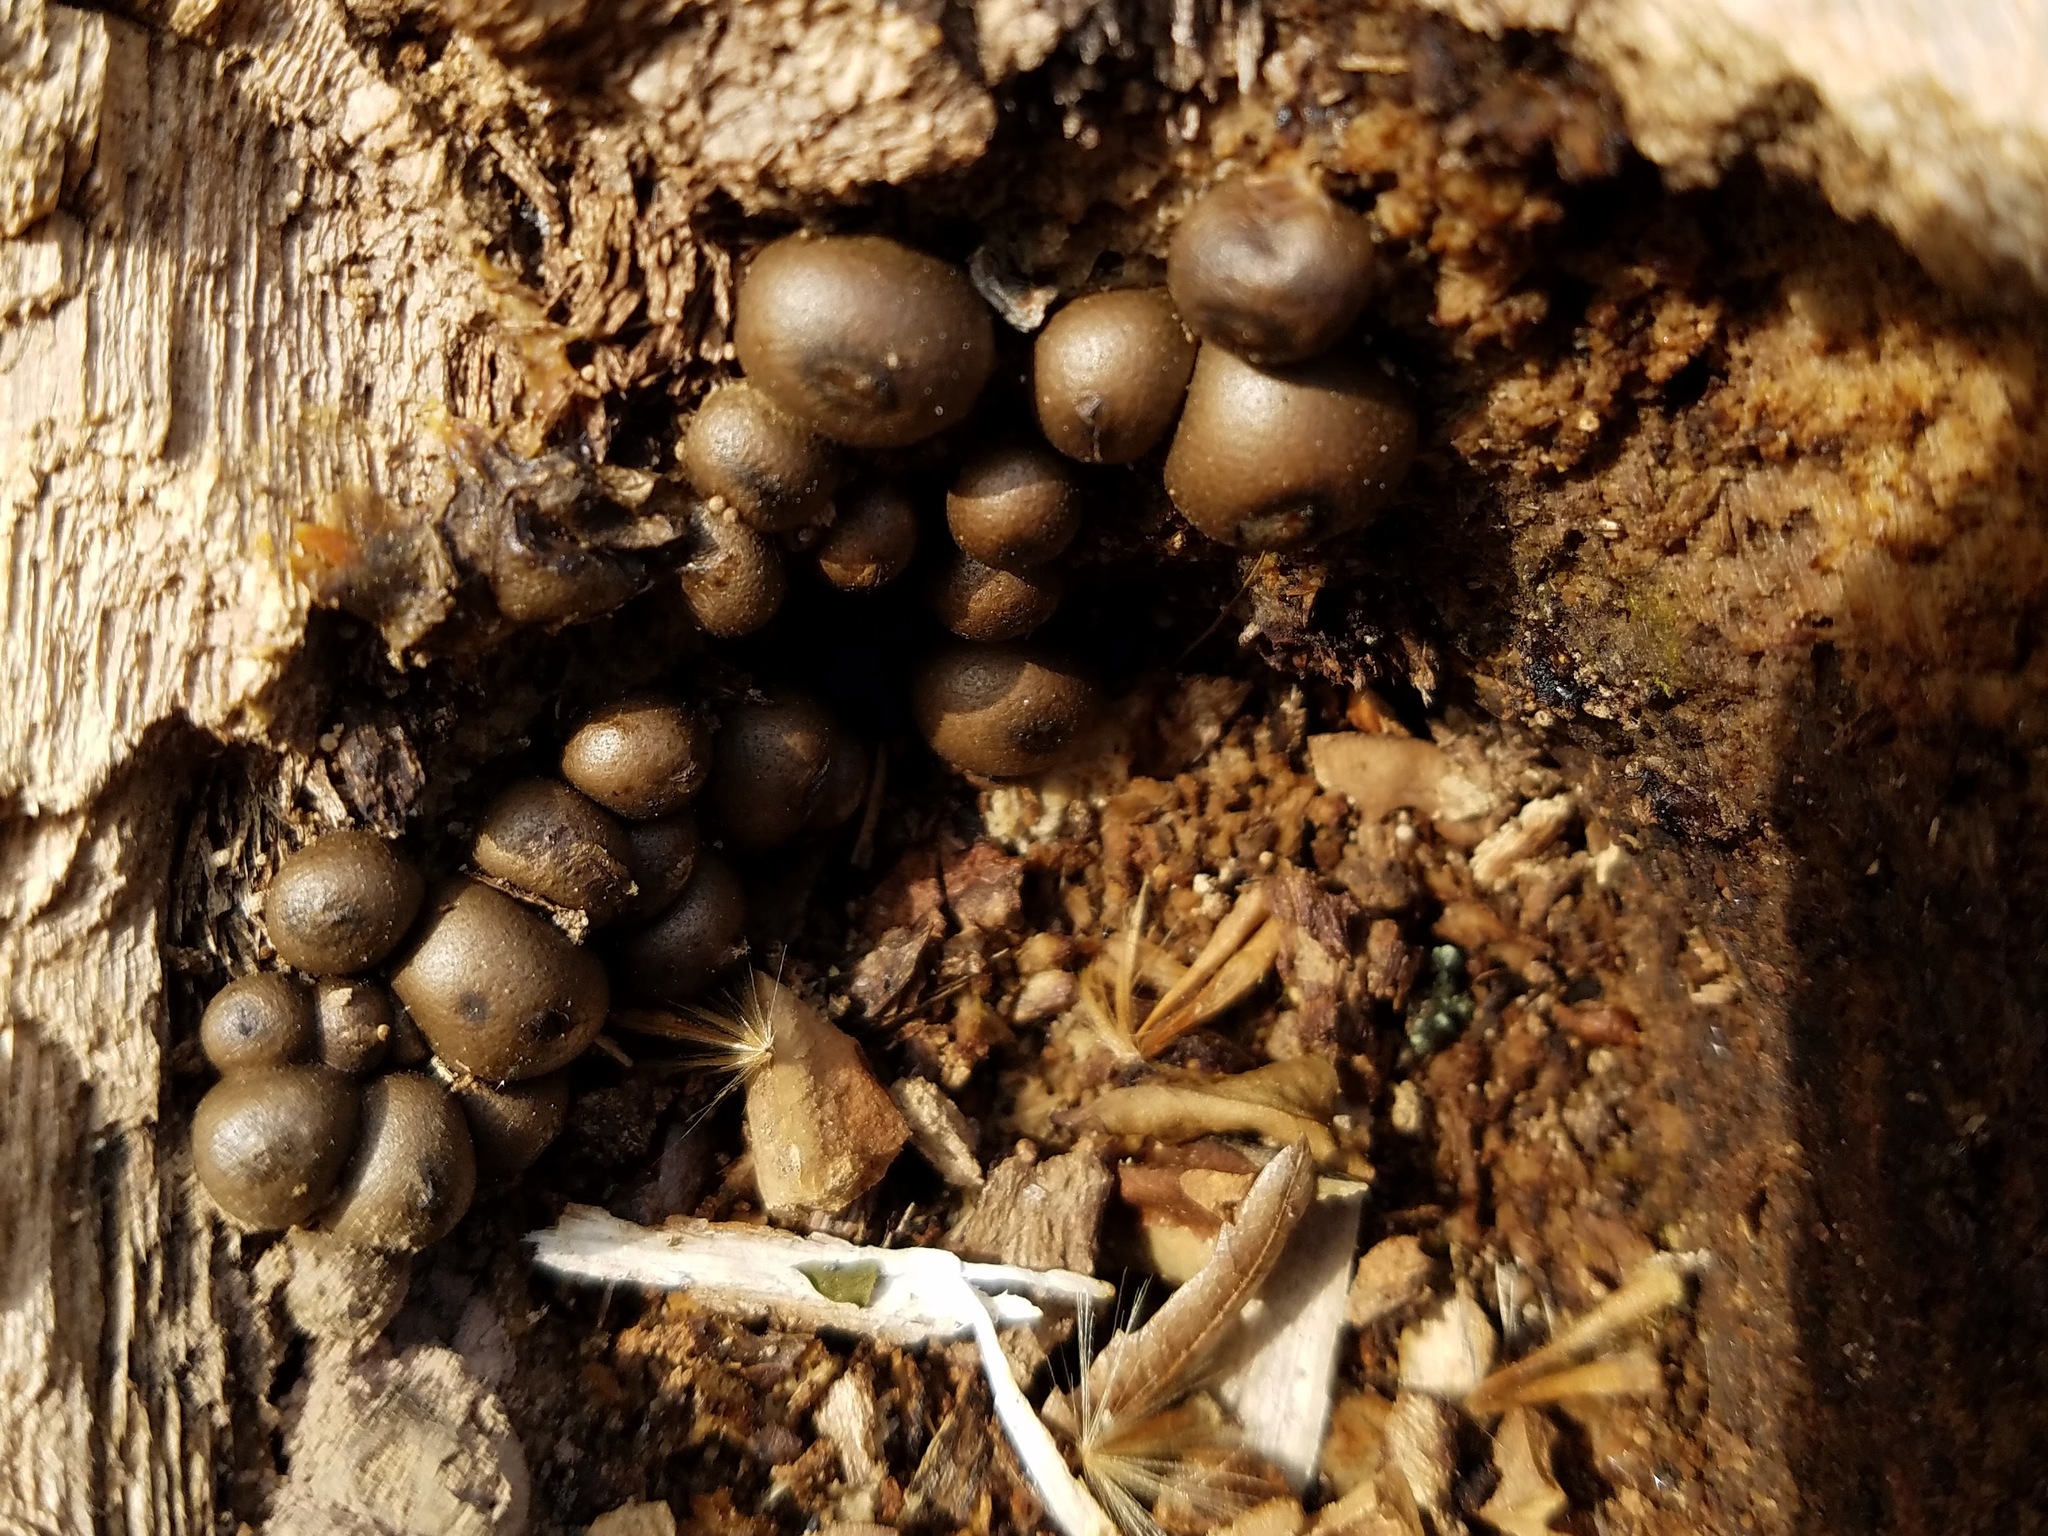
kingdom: Protozoa
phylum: Mycetozoa
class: Myxomycetes
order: Cribrariales
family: Tubiferaceae
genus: Lycogala
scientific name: Lycogala epidendrum
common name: Wolf's milk
